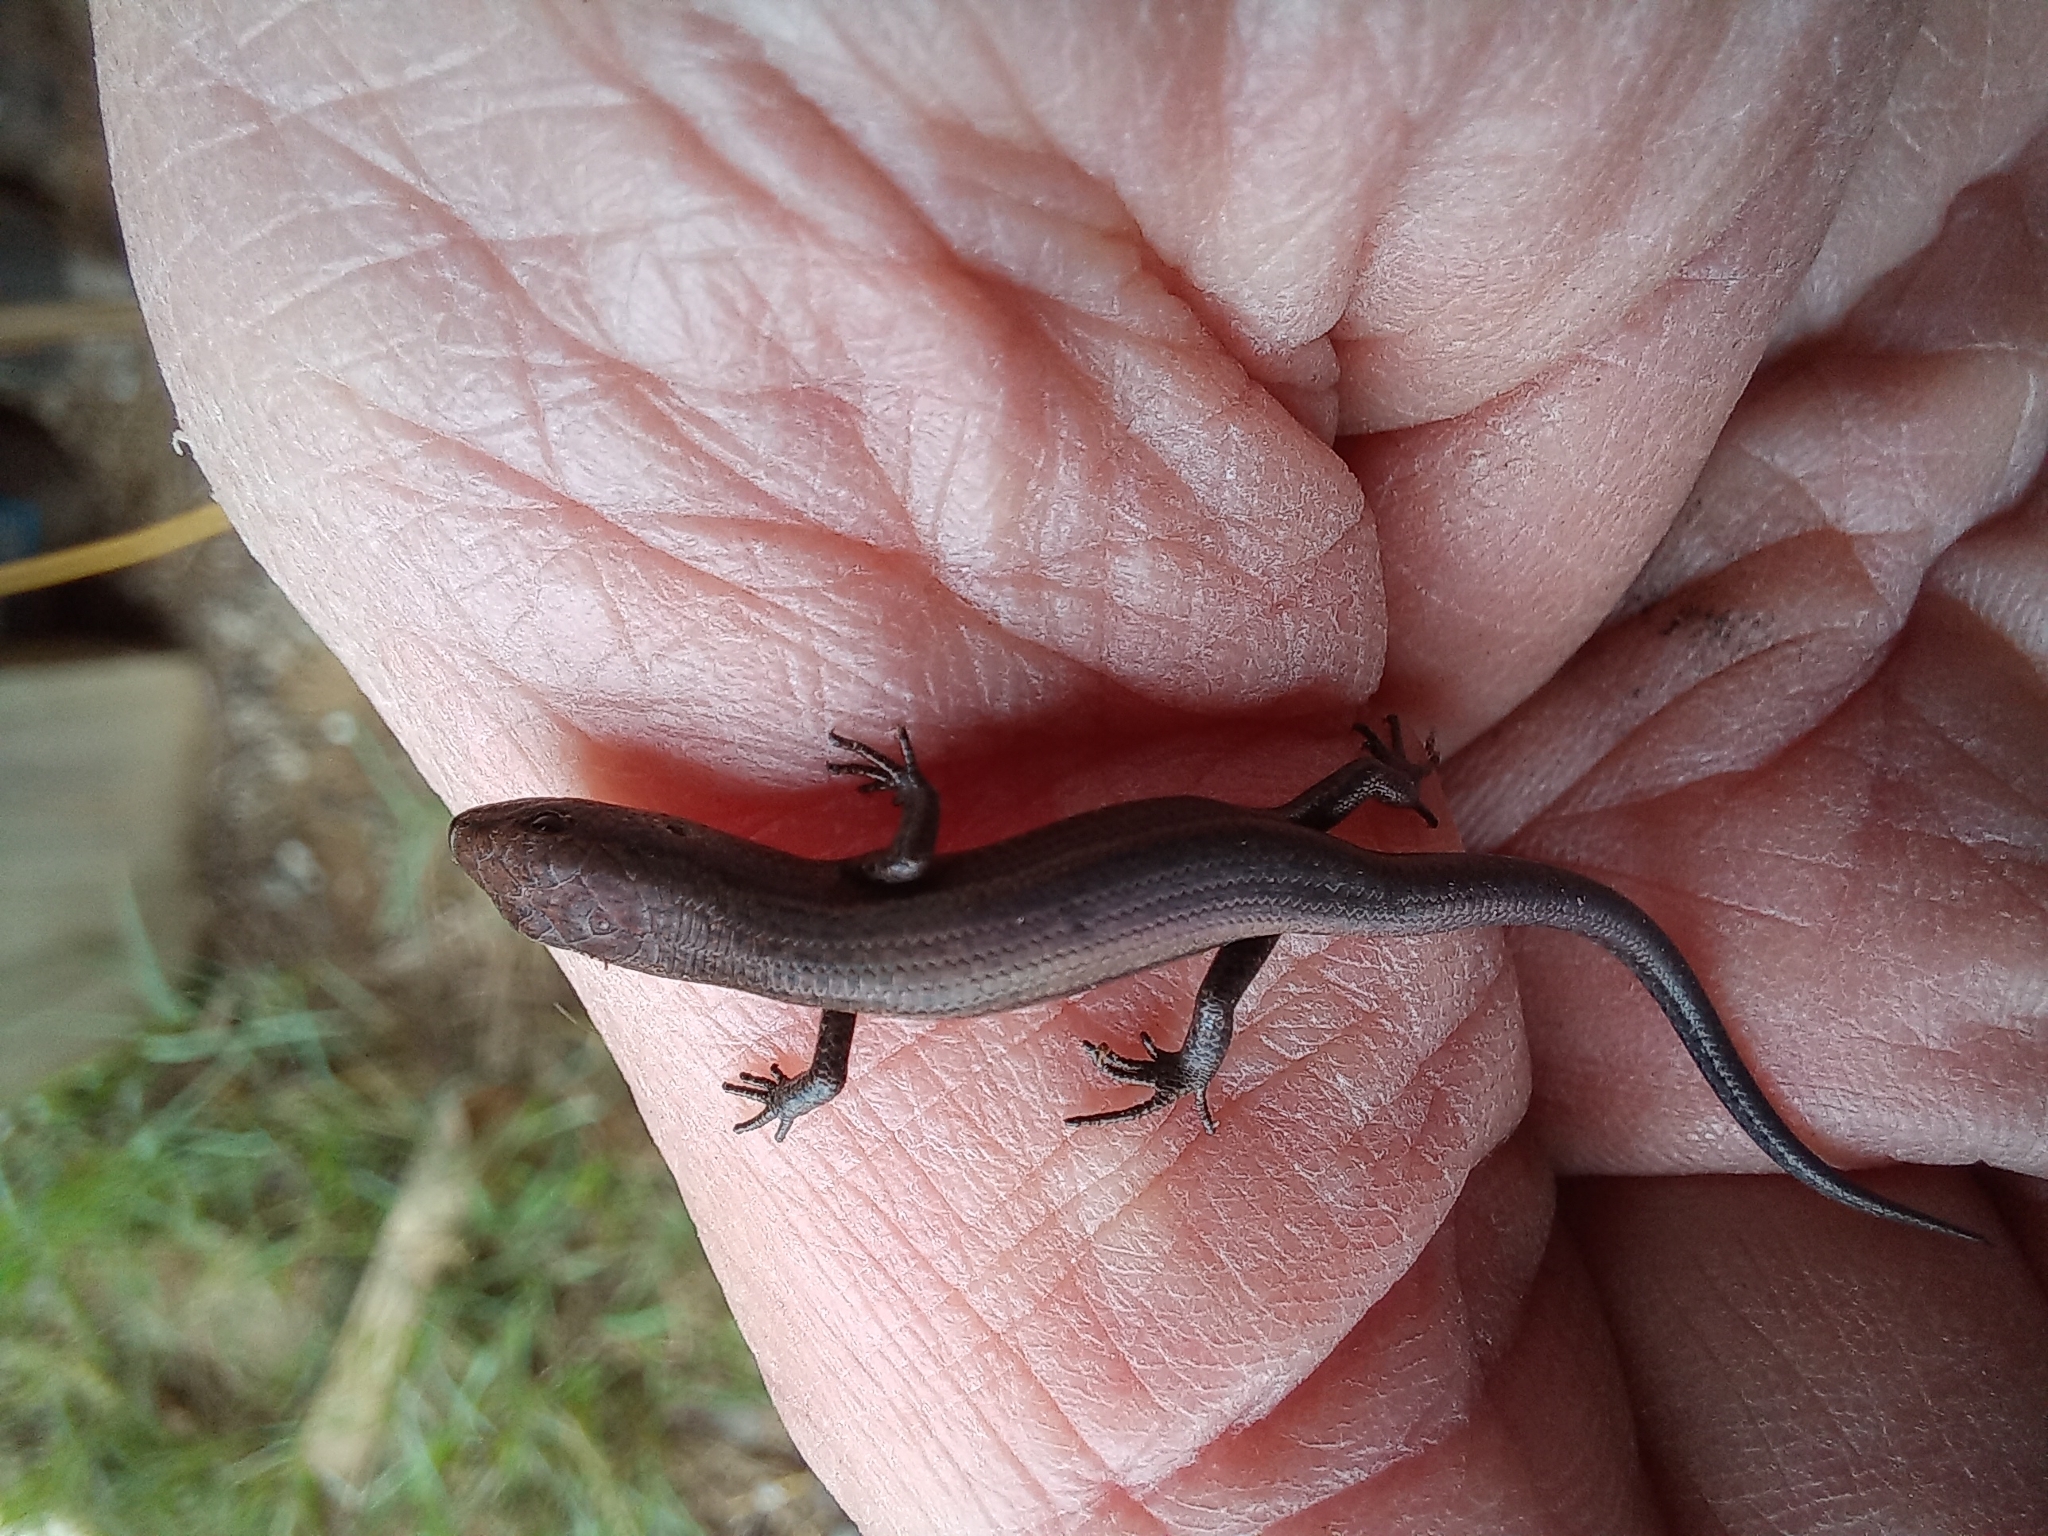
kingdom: Animalia
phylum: Chordata
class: Squamata
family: Scincidae
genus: Lampropholis
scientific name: Lampropholis delicata
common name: Plague skink
